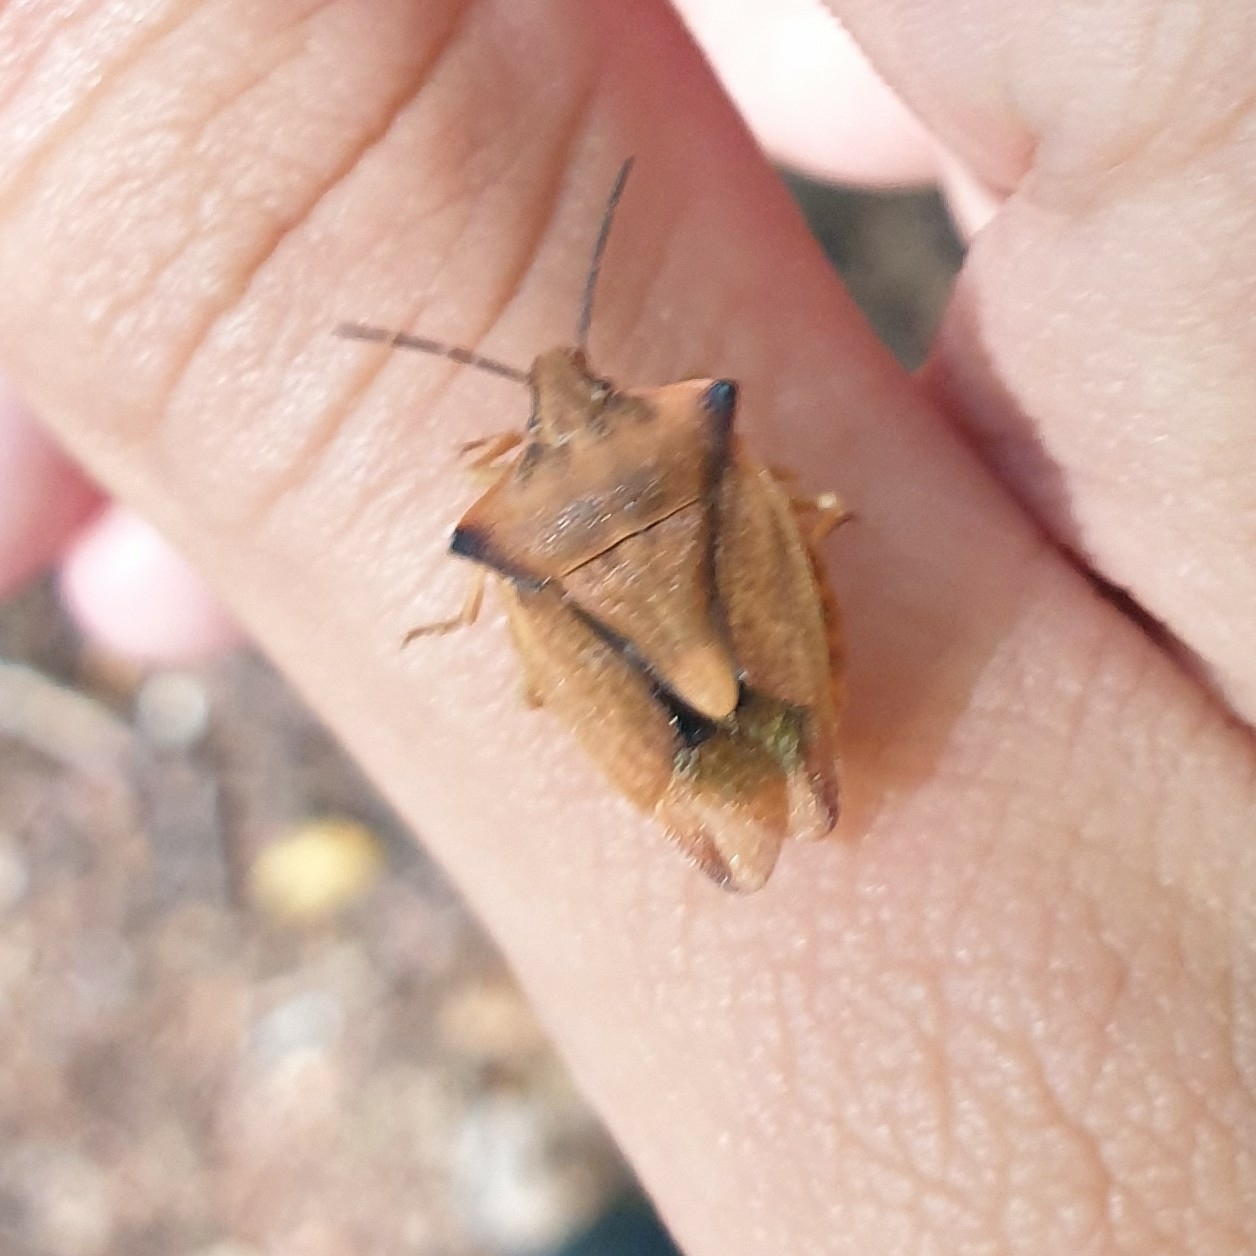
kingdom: Animalia
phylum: Arthropoda
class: Insecta
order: Hemiptera
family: Pentatomidae
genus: Carpocoris
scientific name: Carpocoris fuscispinus
